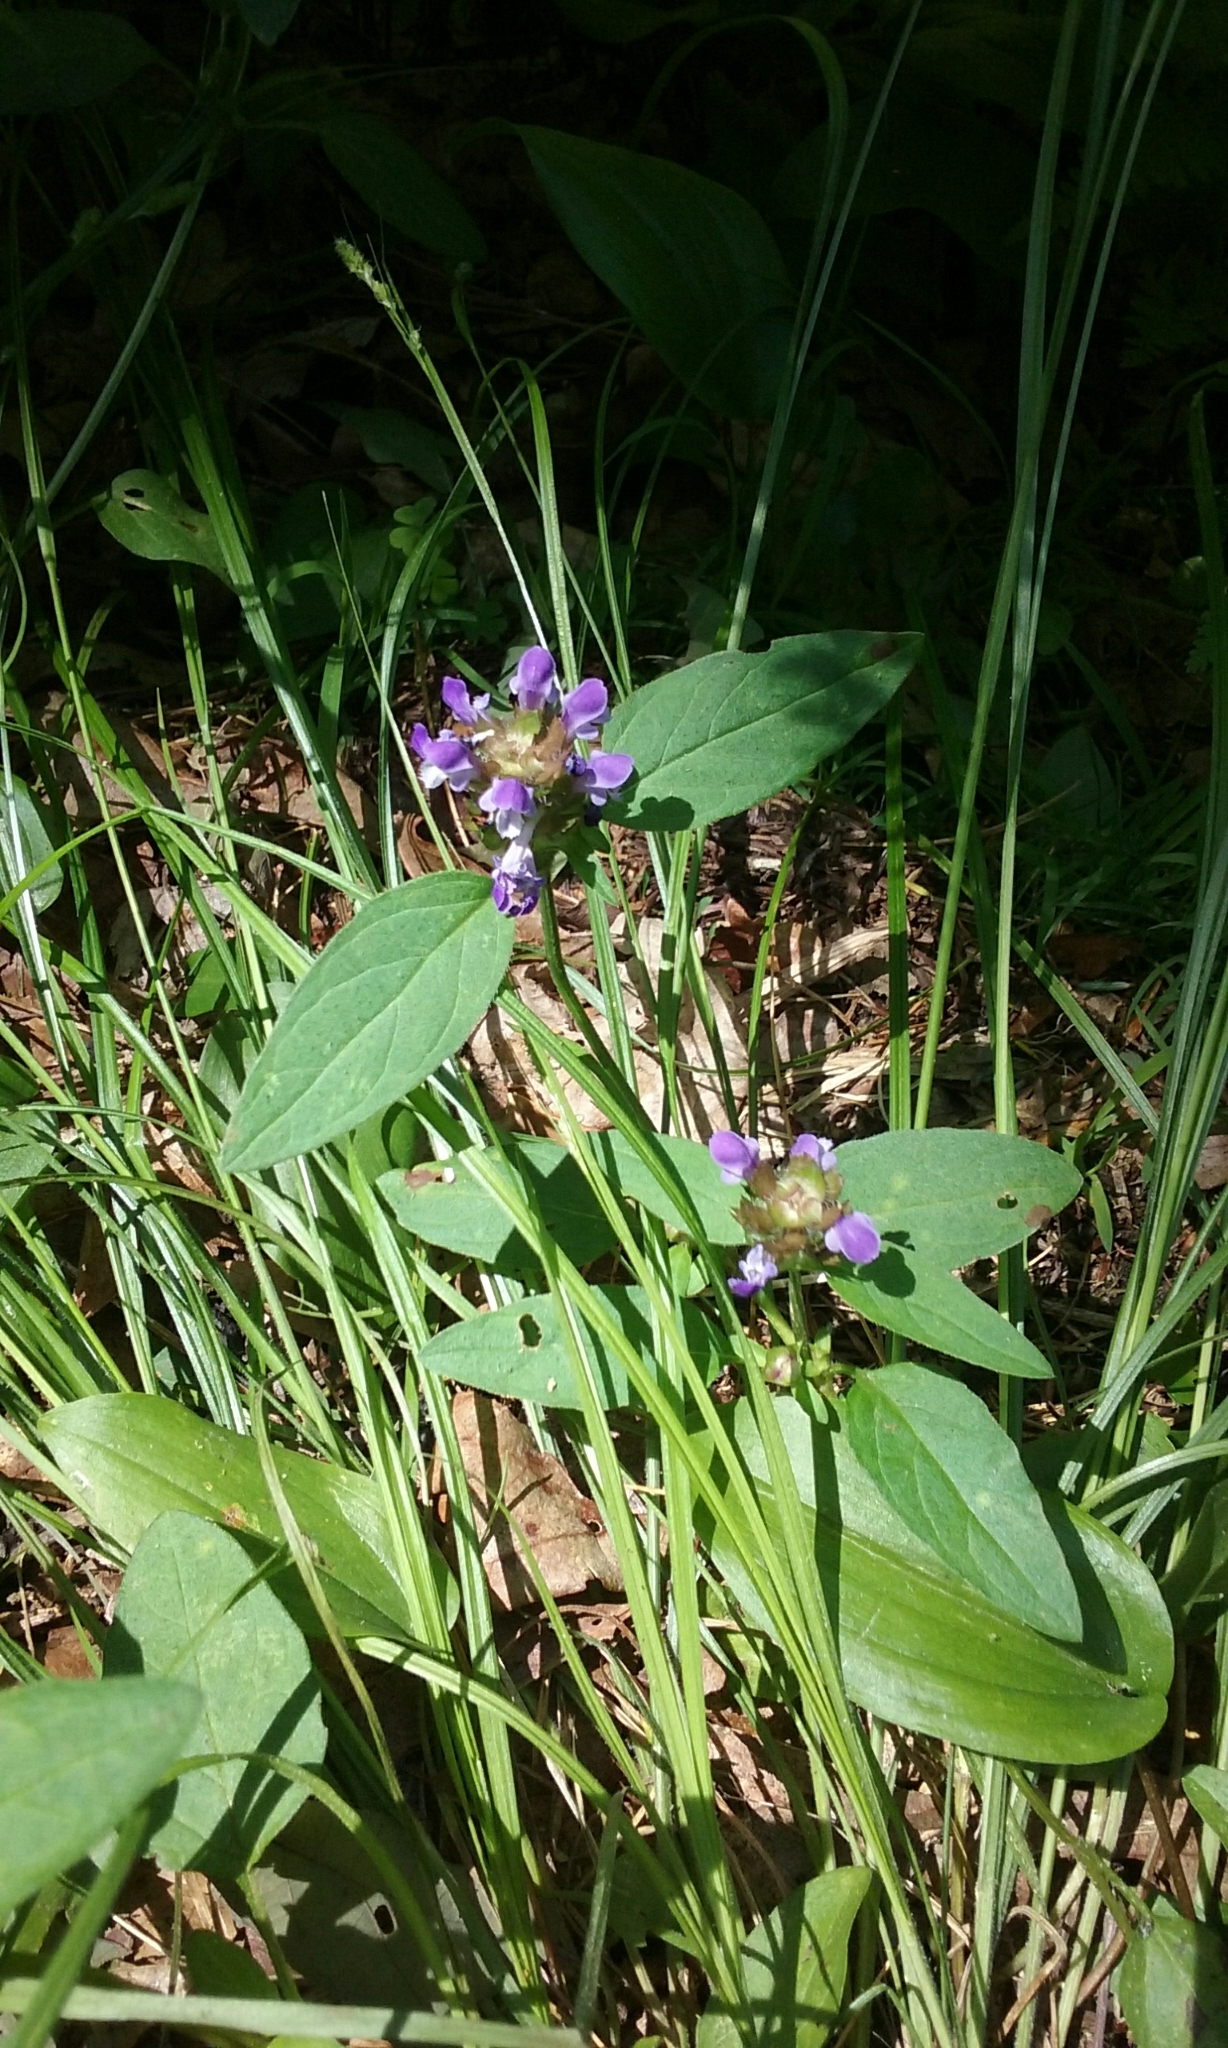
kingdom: Plantae
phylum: Tracheophyta
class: Magnoliopsida
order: Lamiales
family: Lamiaceae
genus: Prunella
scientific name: Prunella vulgaris
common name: Heal-all
